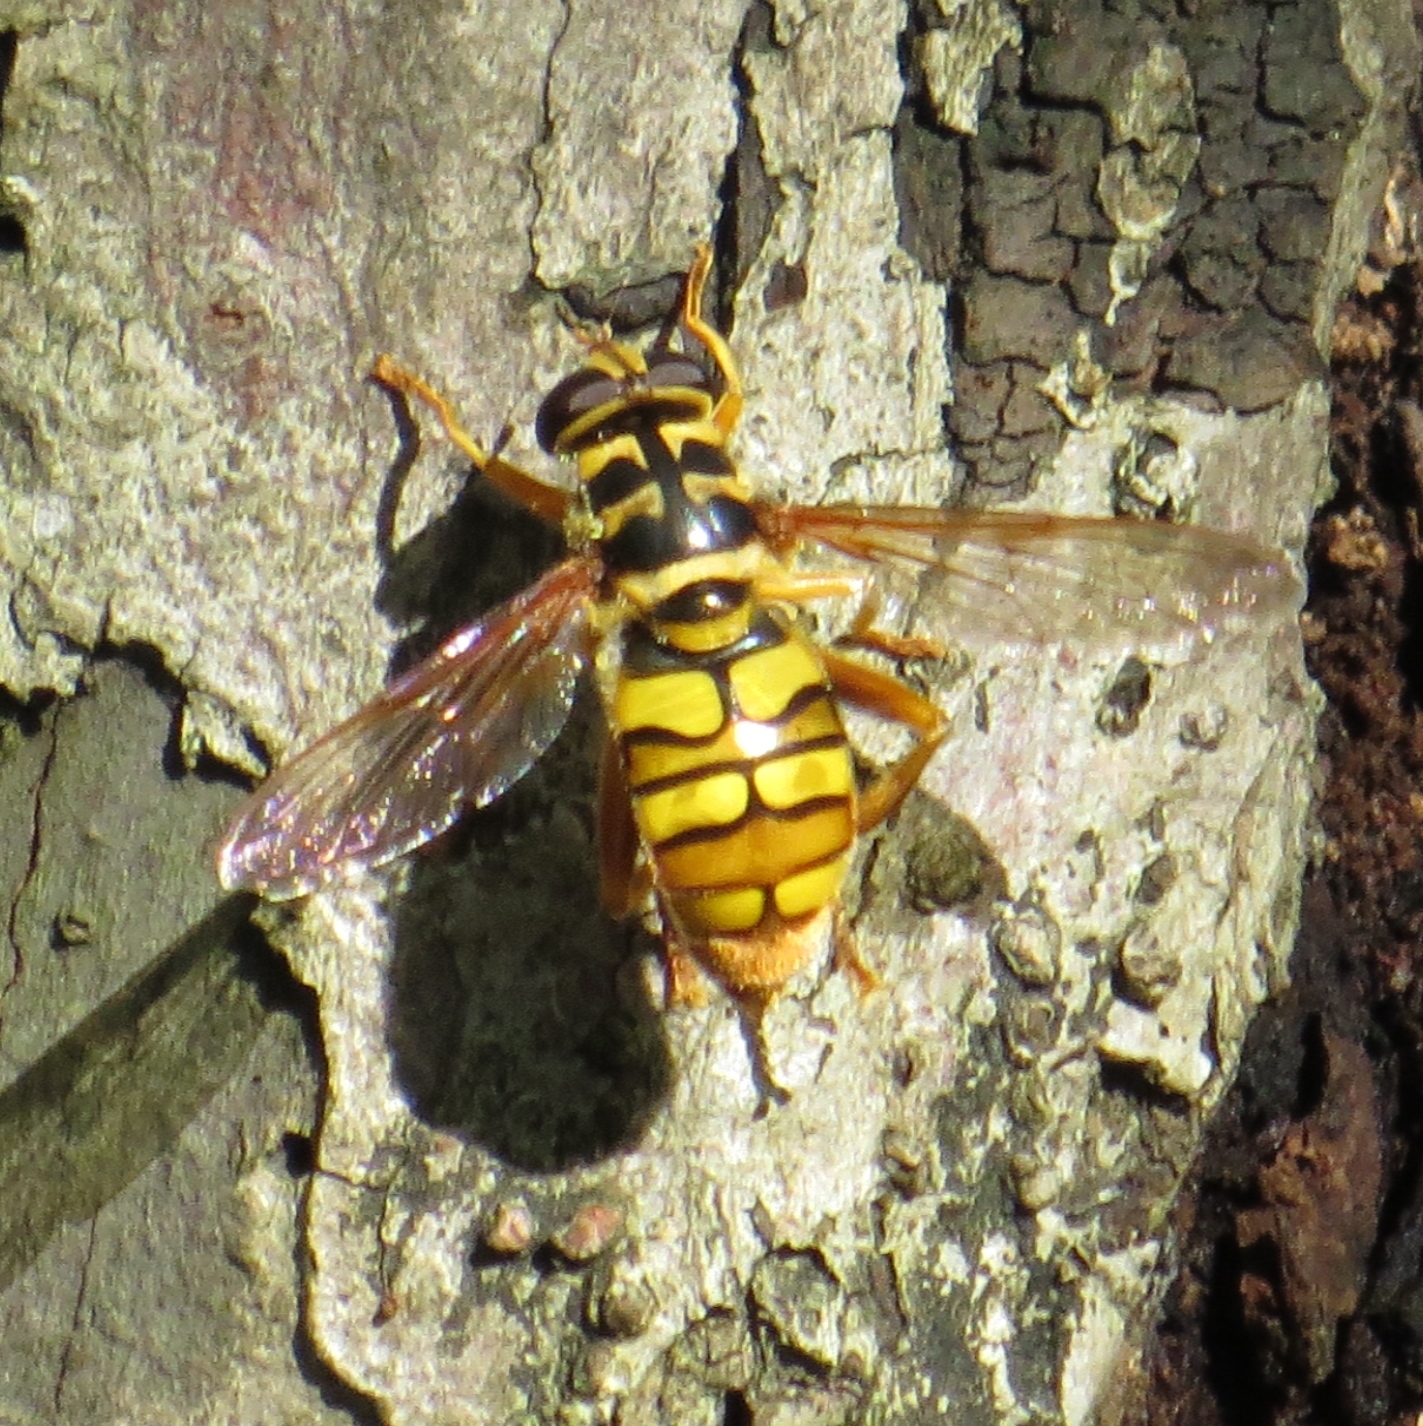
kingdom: Animalia
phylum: Arthropoda
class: Insecta
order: Diptera
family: Syrphidae
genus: Milesia
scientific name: Milesia virginiensis
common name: Virginia giant
